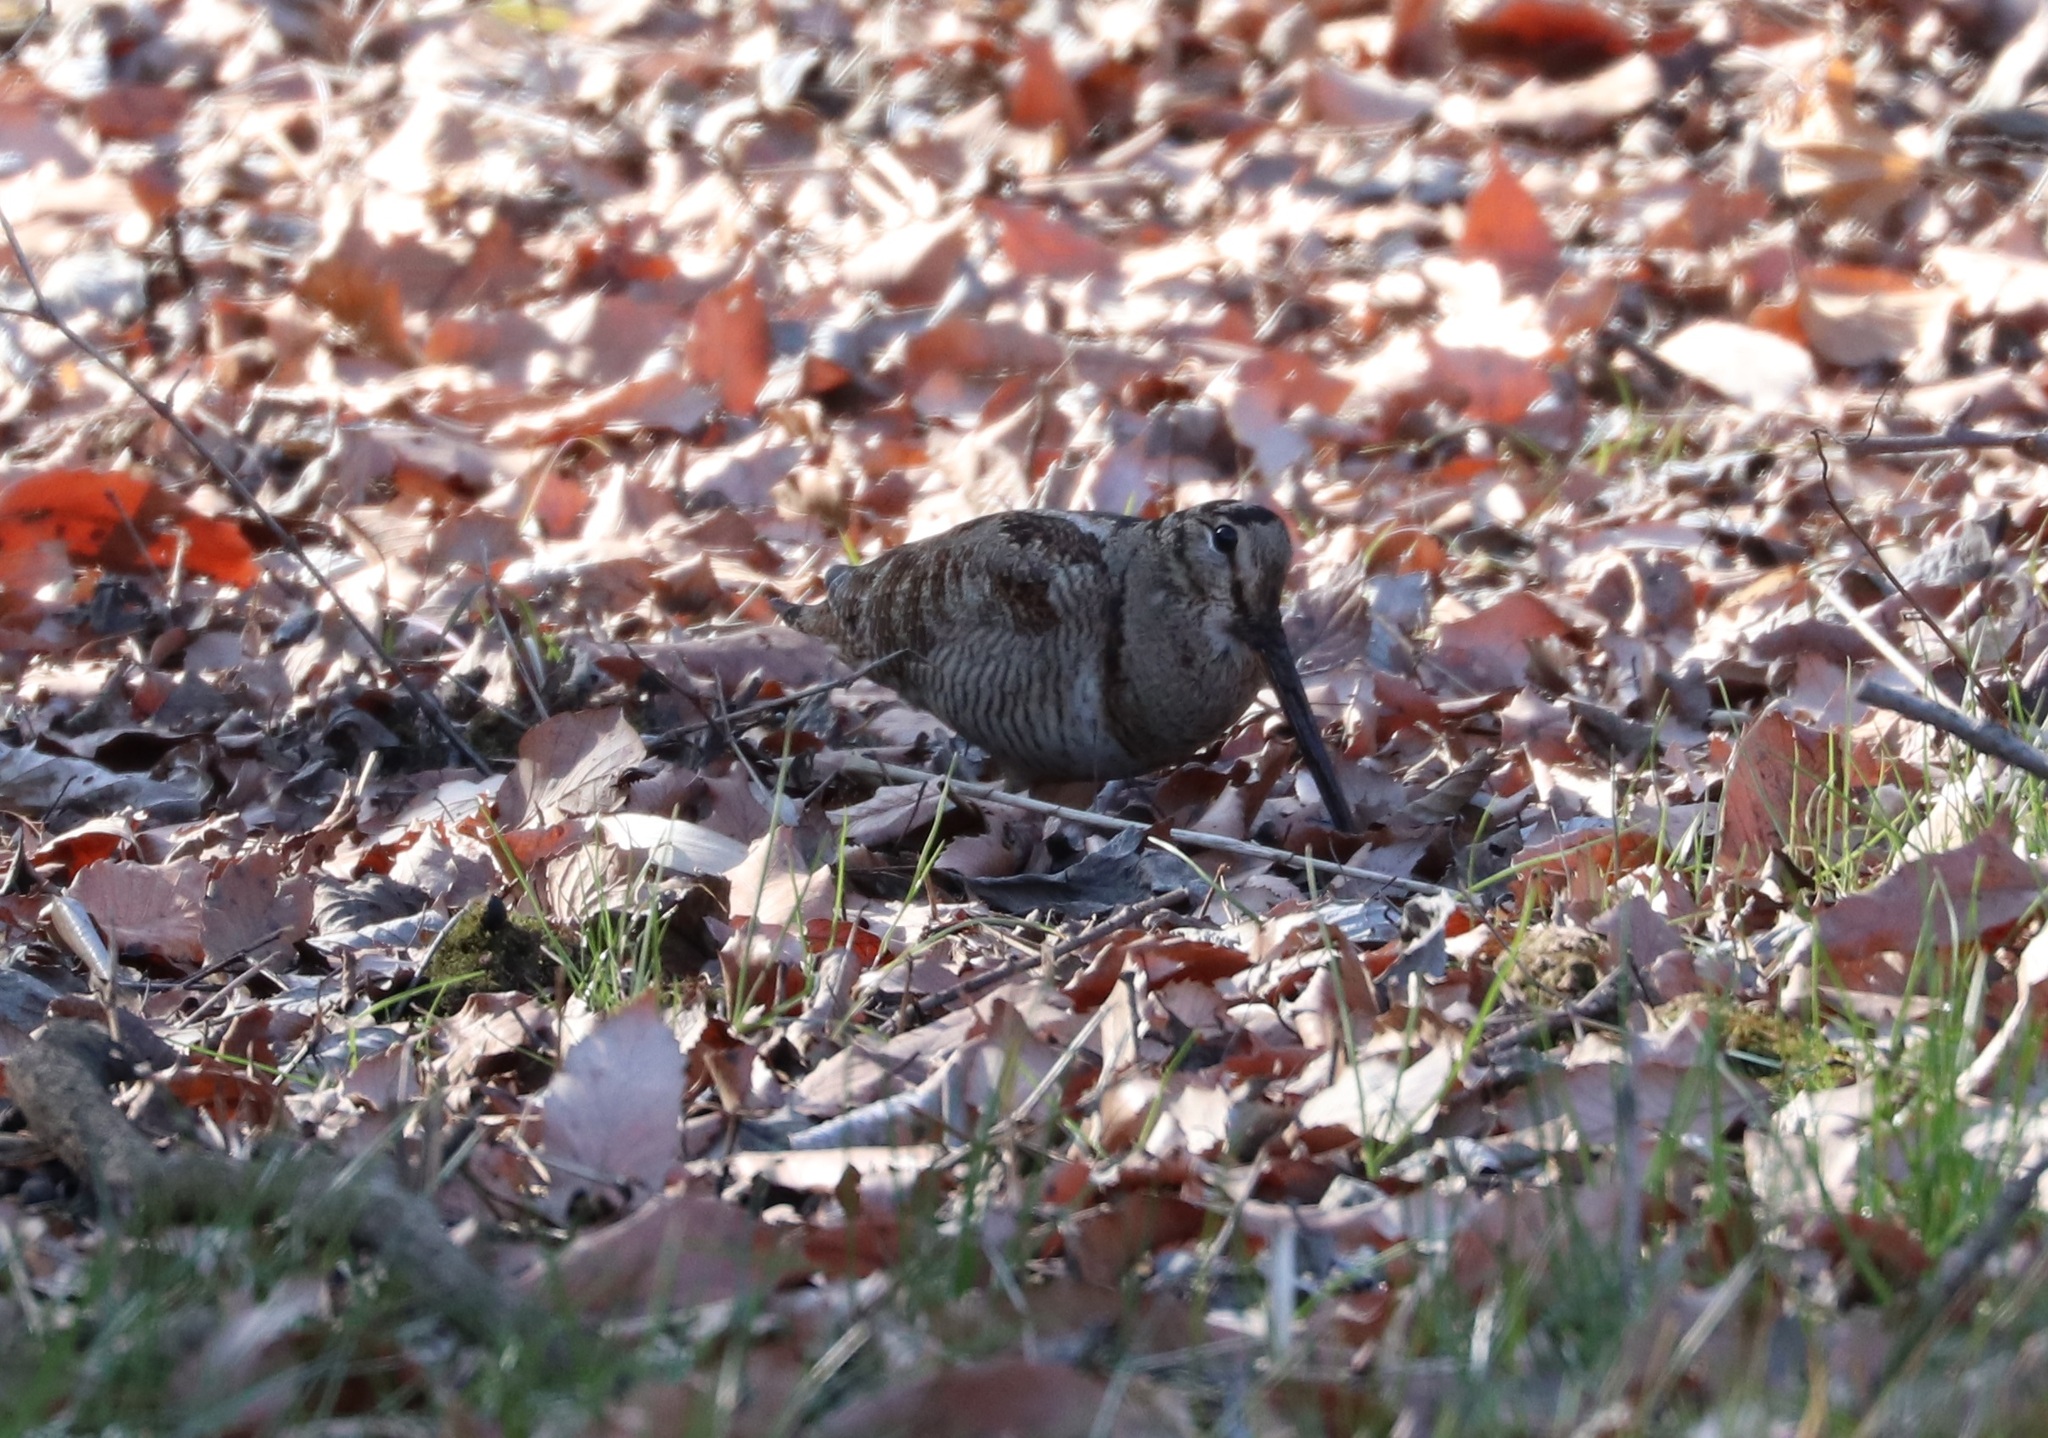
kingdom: Animalia
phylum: Chordata
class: Aves
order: Charadriiformes
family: Scolopacidae
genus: Scolopax
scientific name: Scolopax rusticola
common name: Eurasian woodcock
